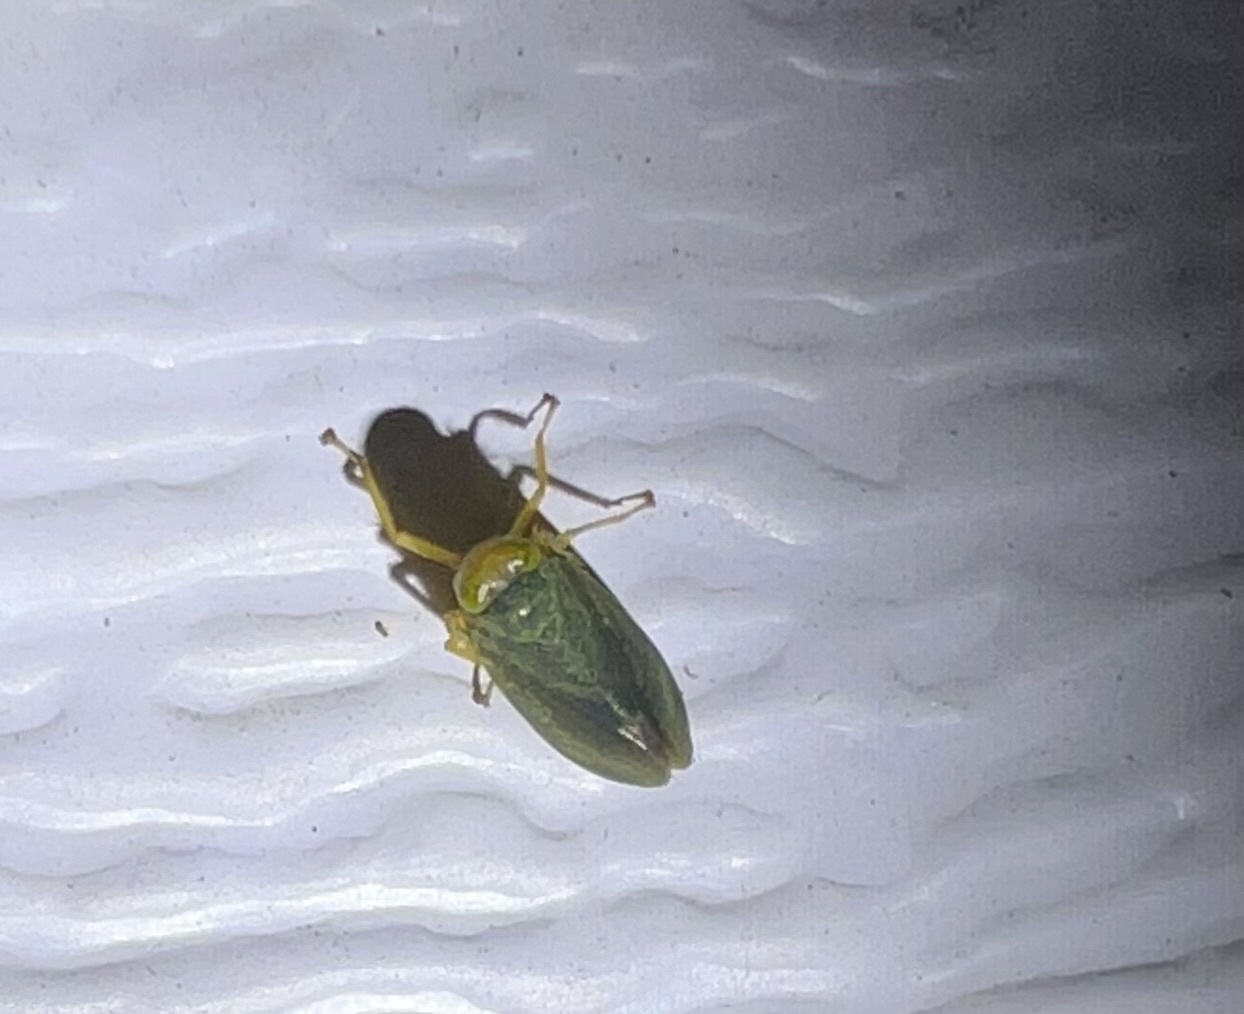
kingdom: Animalia
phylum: Arthropoda
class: Insecta
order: Hemiptera
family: Cicadellidae
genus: Jikradia
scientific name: Jikradia olitoria
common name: Coppery leafhopper
